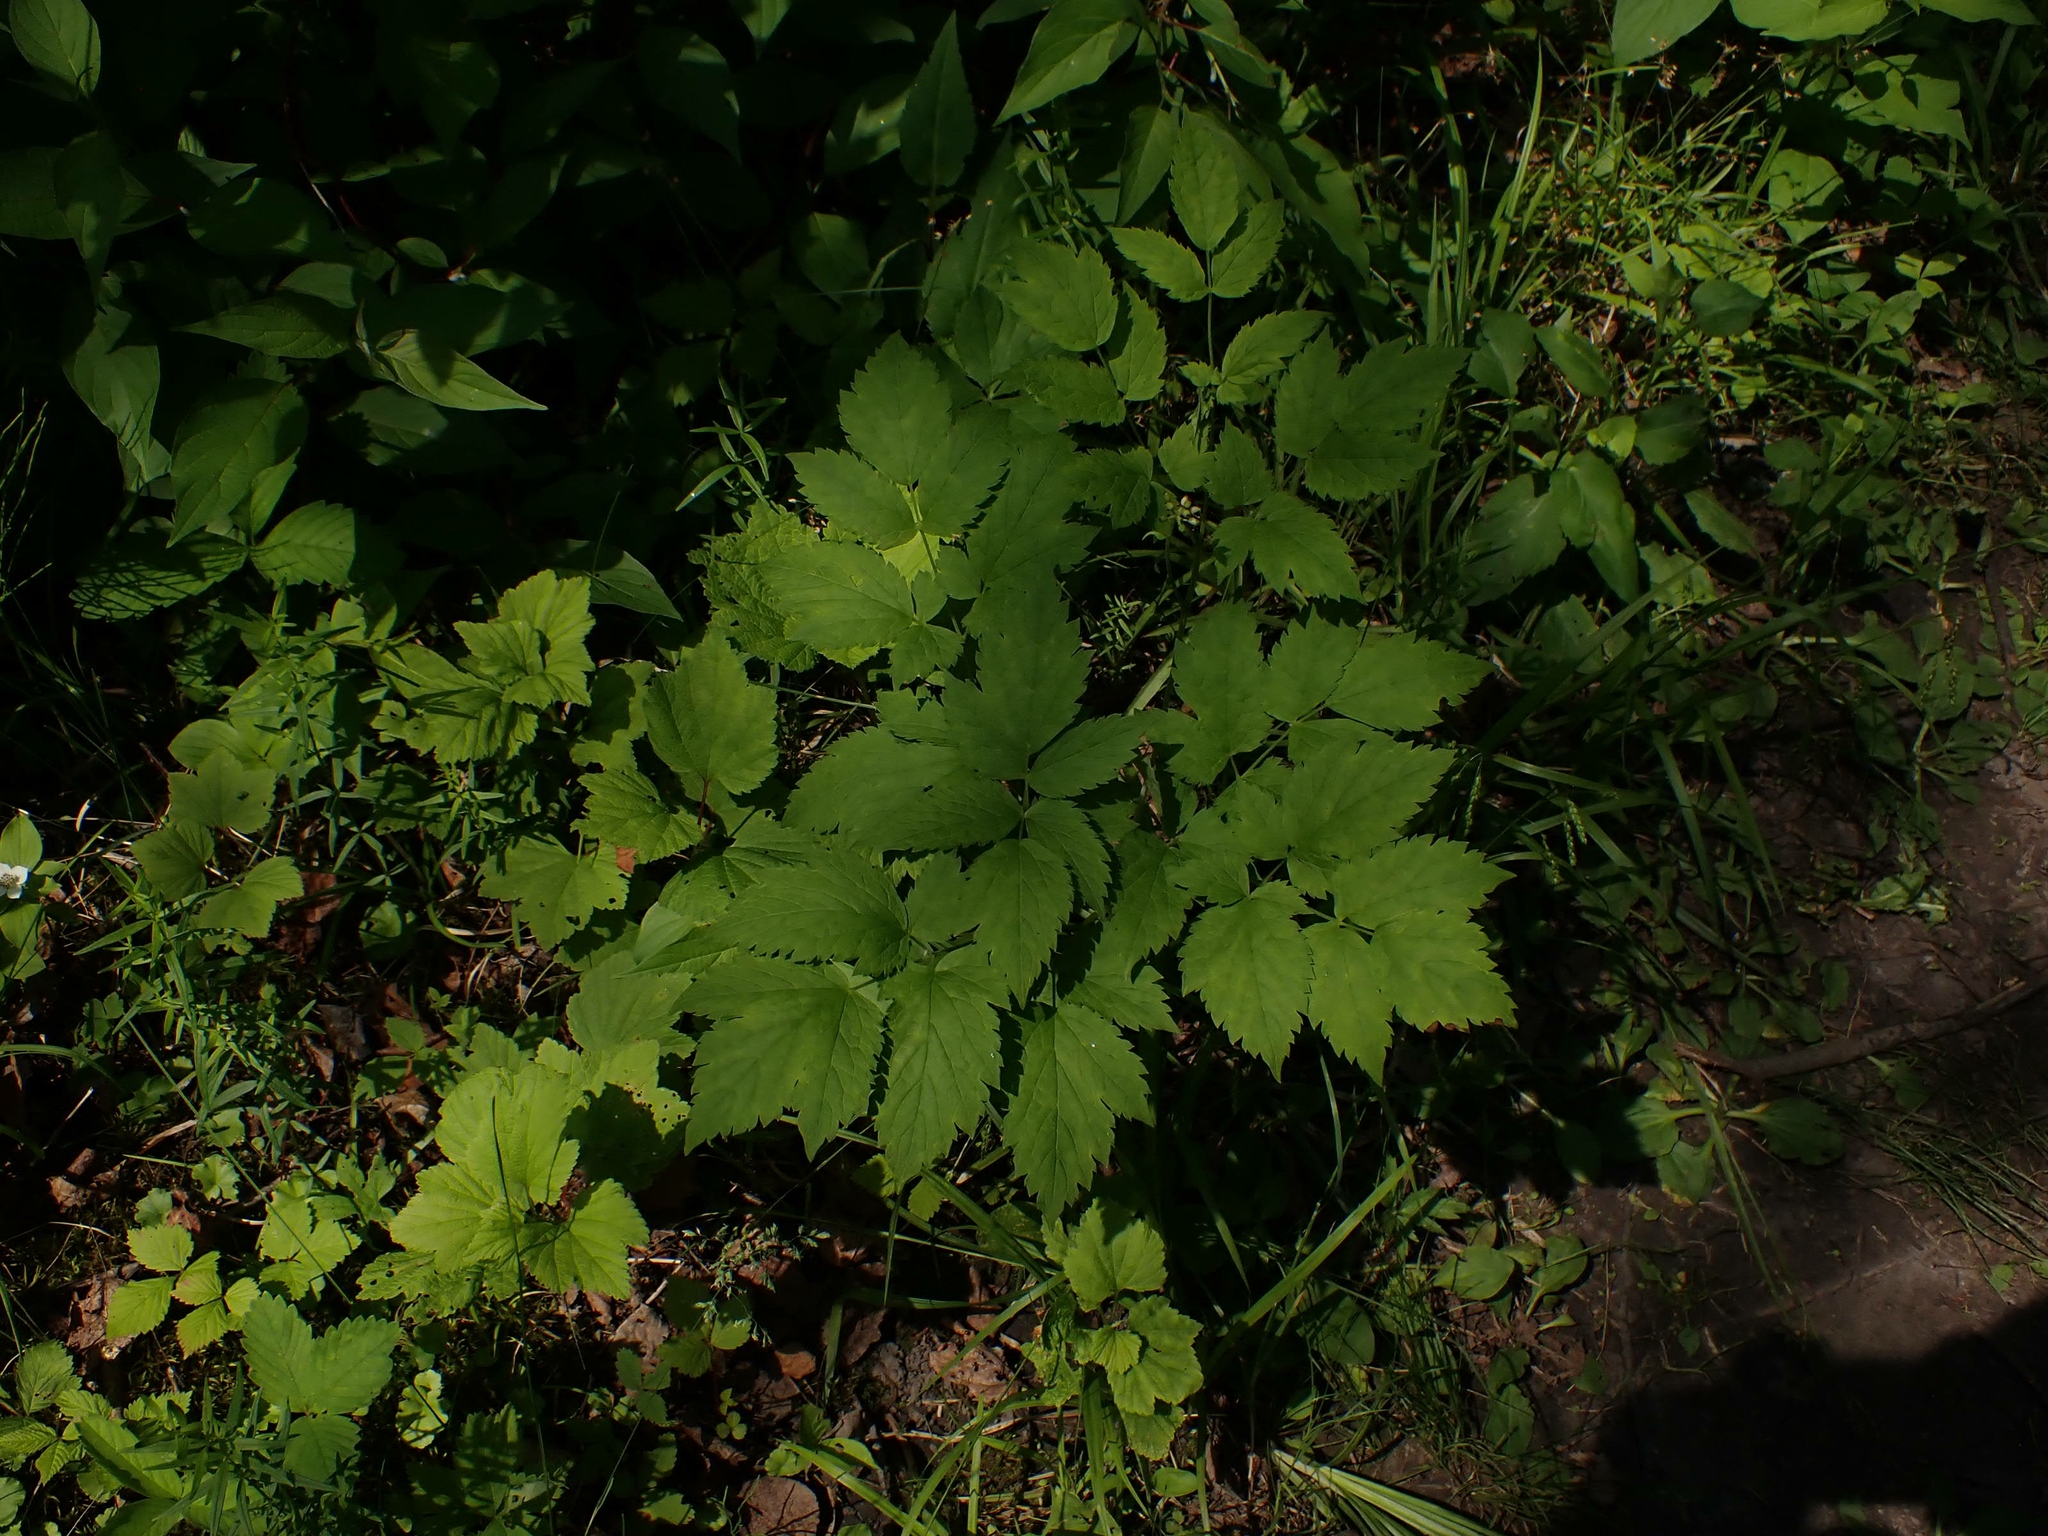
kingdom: Plantae
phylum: Tracheophyta
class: Magnoliopsida
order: Ranunculales
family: Ranunculaceae
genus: Actaea
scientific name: Actaea rubra
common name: Red baneberry
